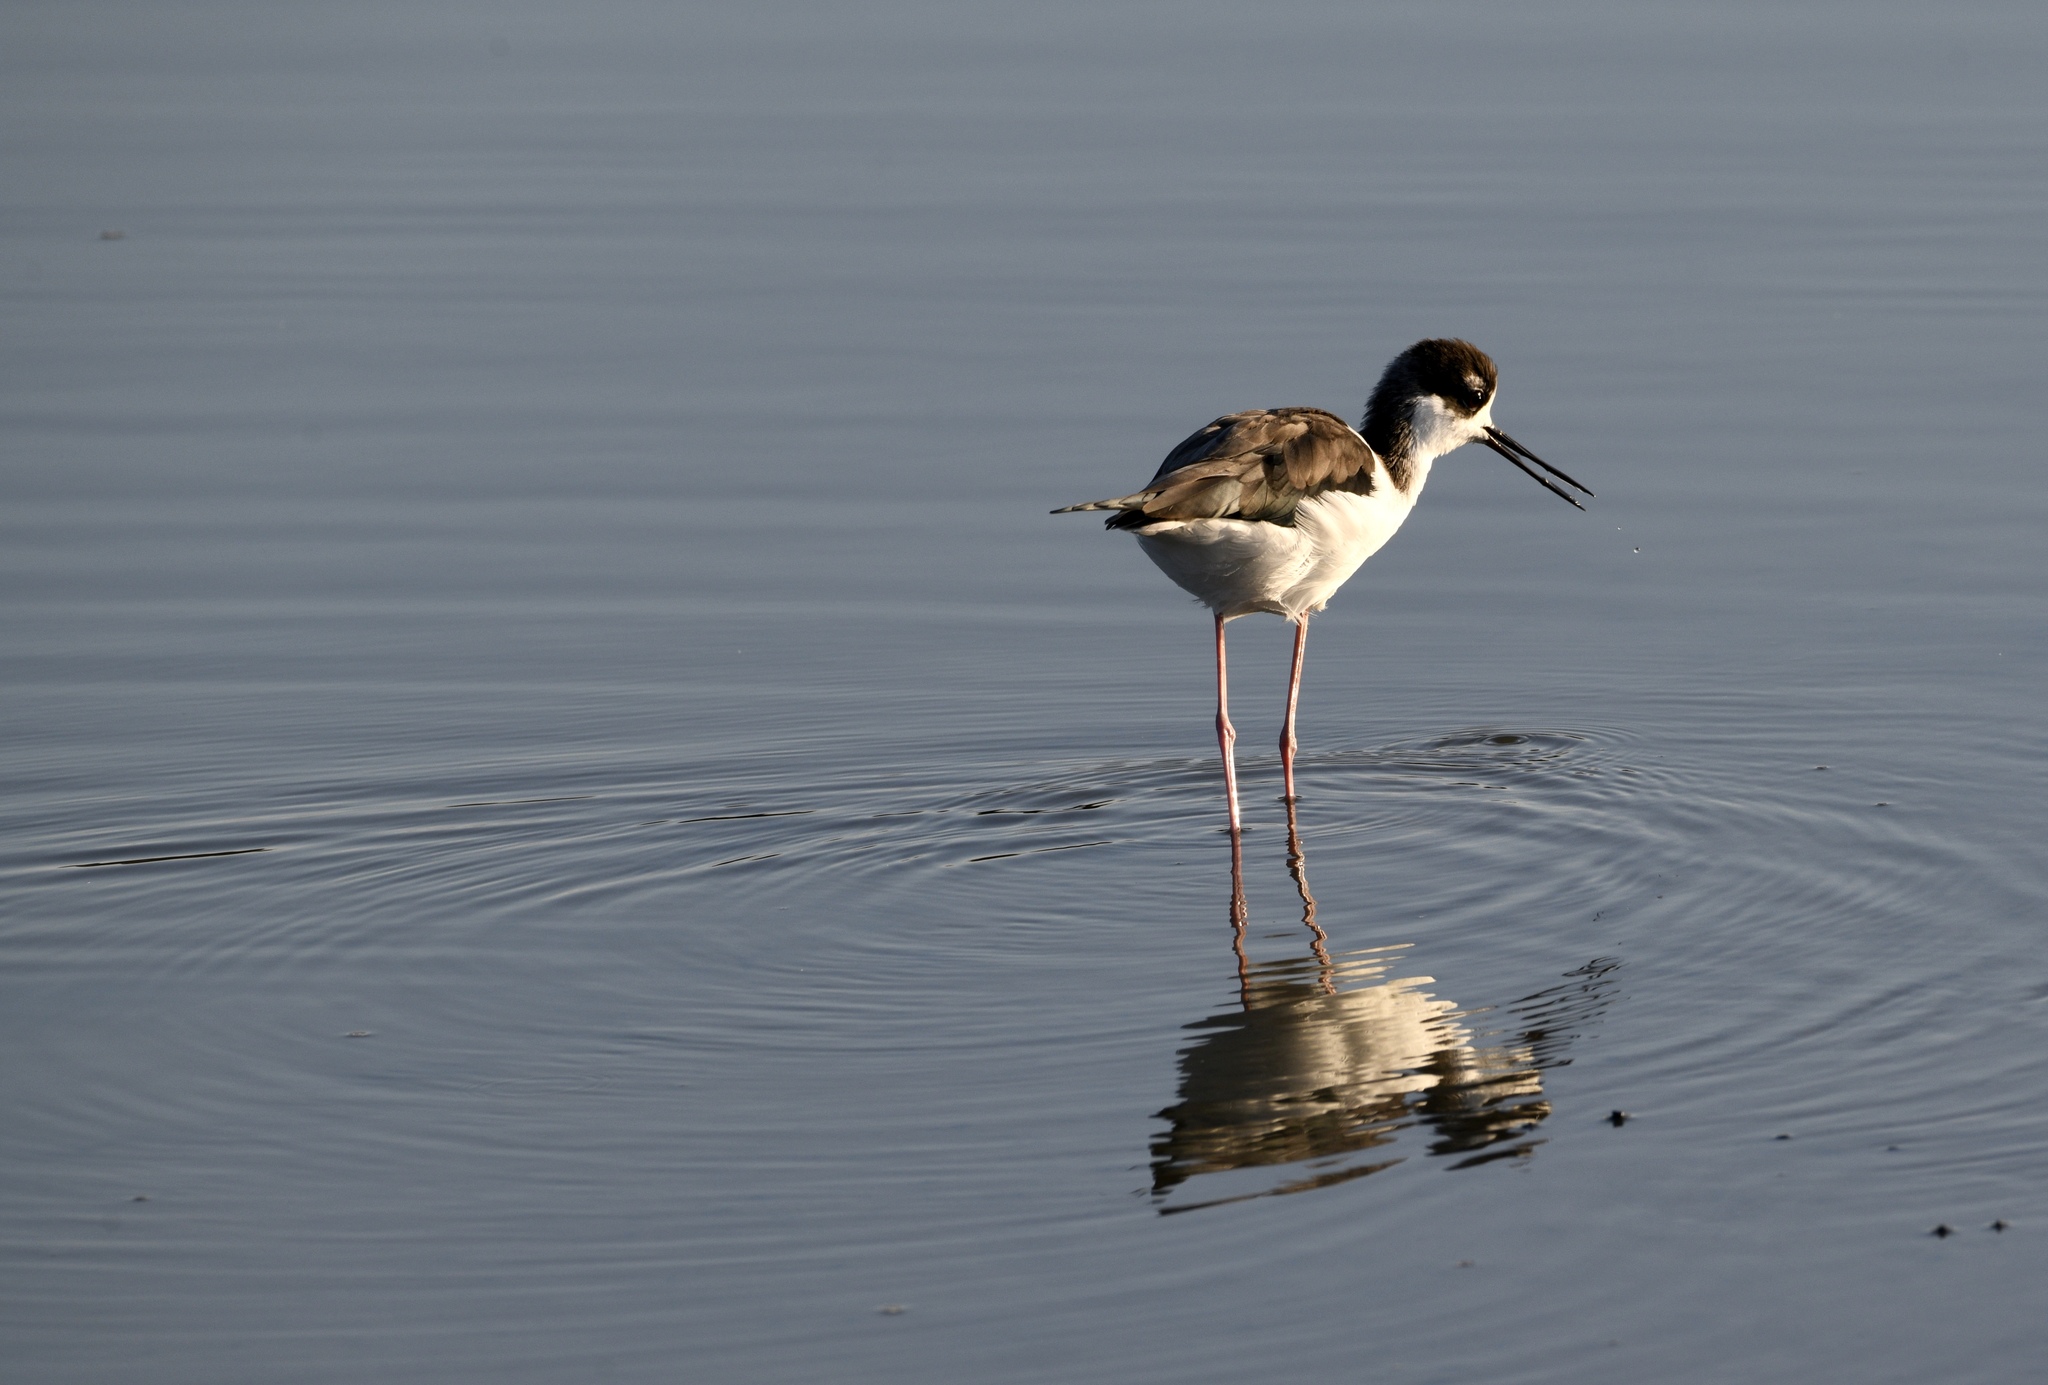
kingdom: Animalia
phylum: Chordata
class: Aves
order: Charadriiformes
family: Recurvirostridae
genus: Himantopus
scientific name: Himantopus mexicanus
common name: Black-necked stilt
